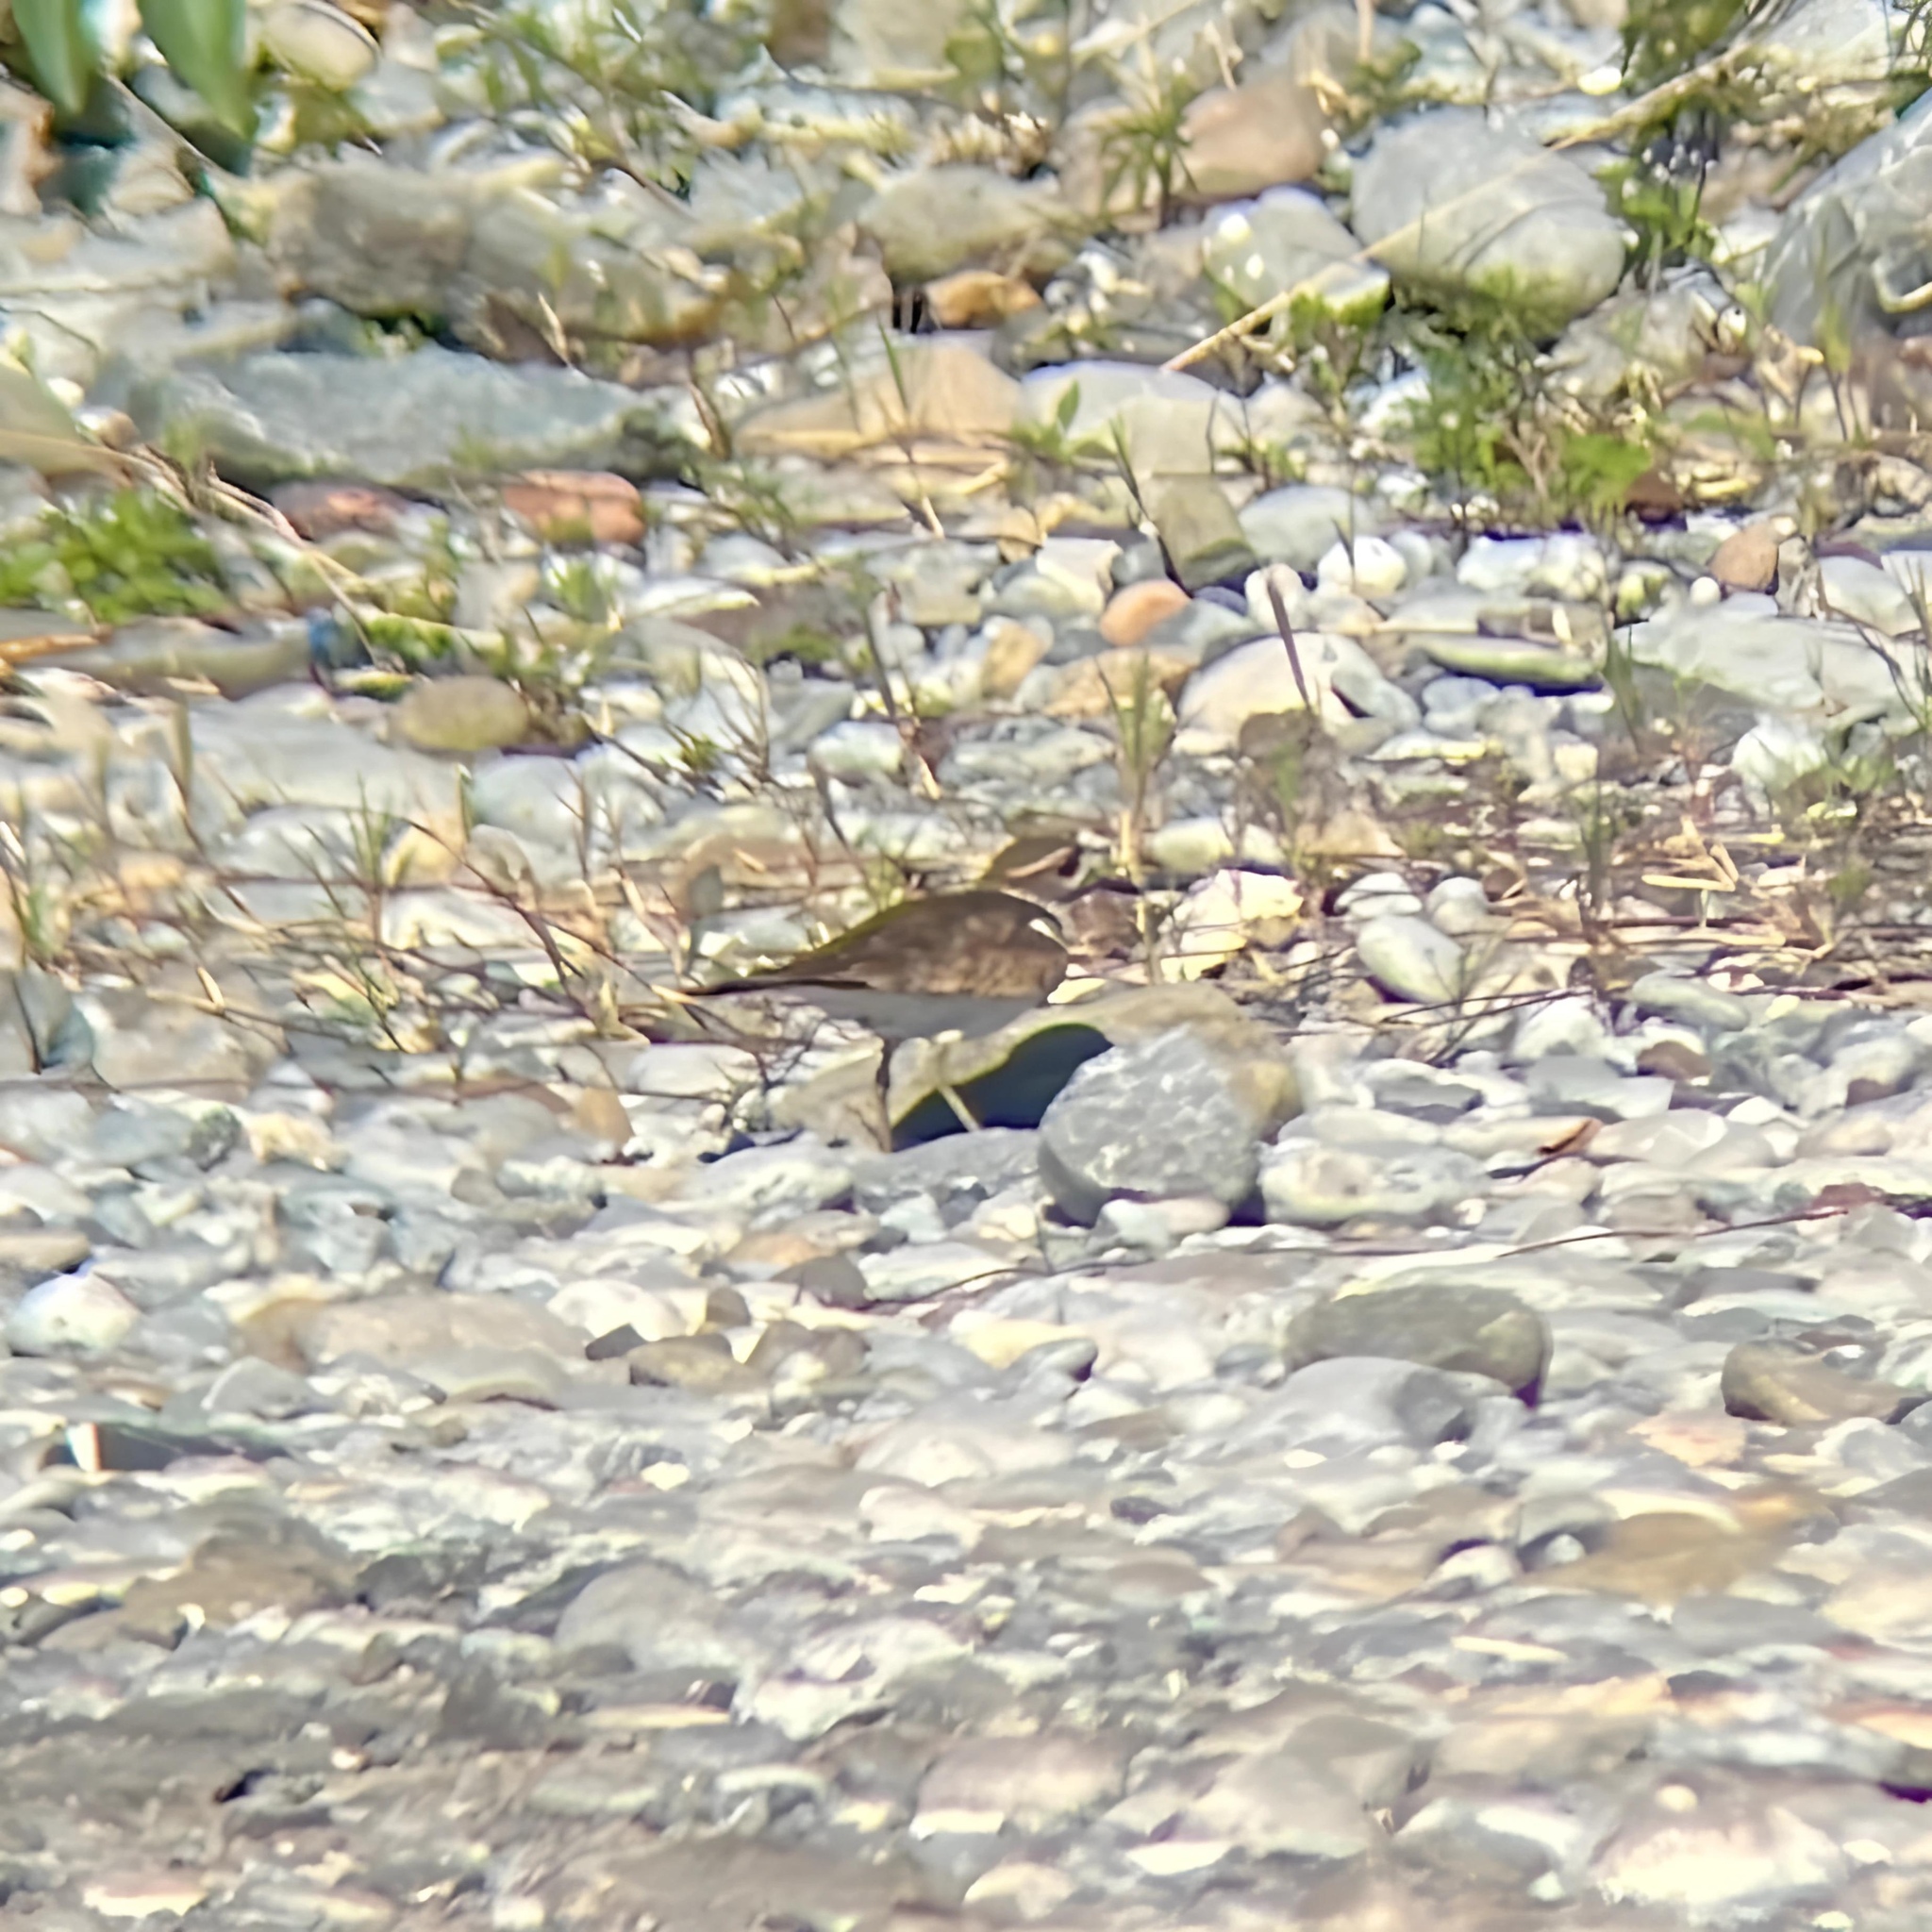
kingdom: Animalia
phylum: Chordata
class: Aves
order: Charadriiformes
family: Charadriidae
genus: Charadrius
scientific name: Charadrius vociferus
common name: Killdeer
